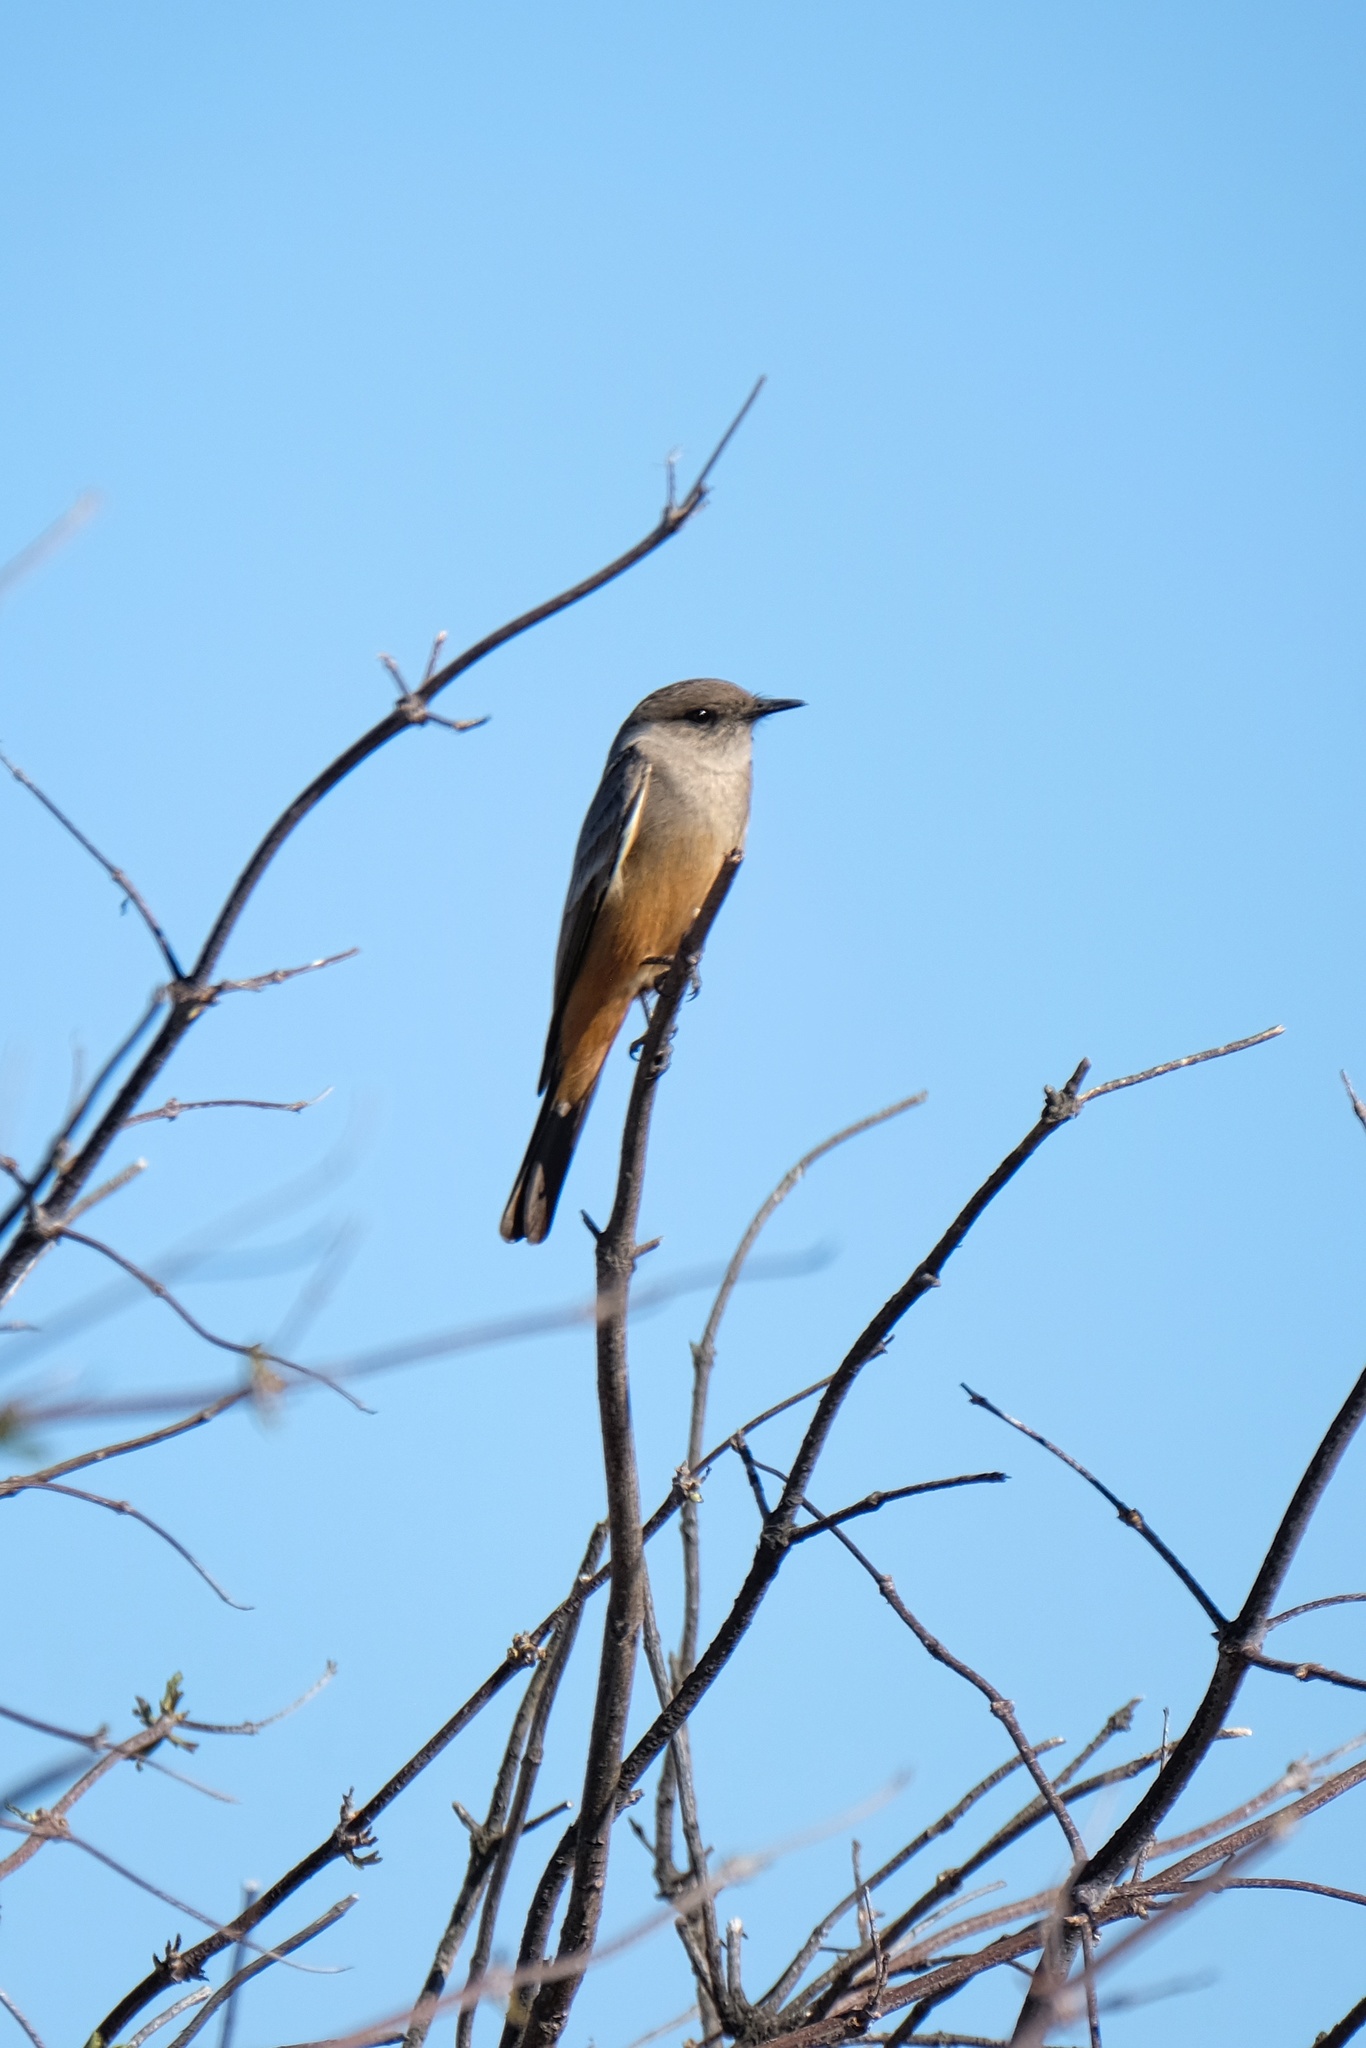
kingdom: Animalia
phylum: Chordata
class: Aves
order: Passeriformes
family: Tyrannidae
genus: Sayornis
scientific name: Sayornis saya
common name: Say's phoebe
